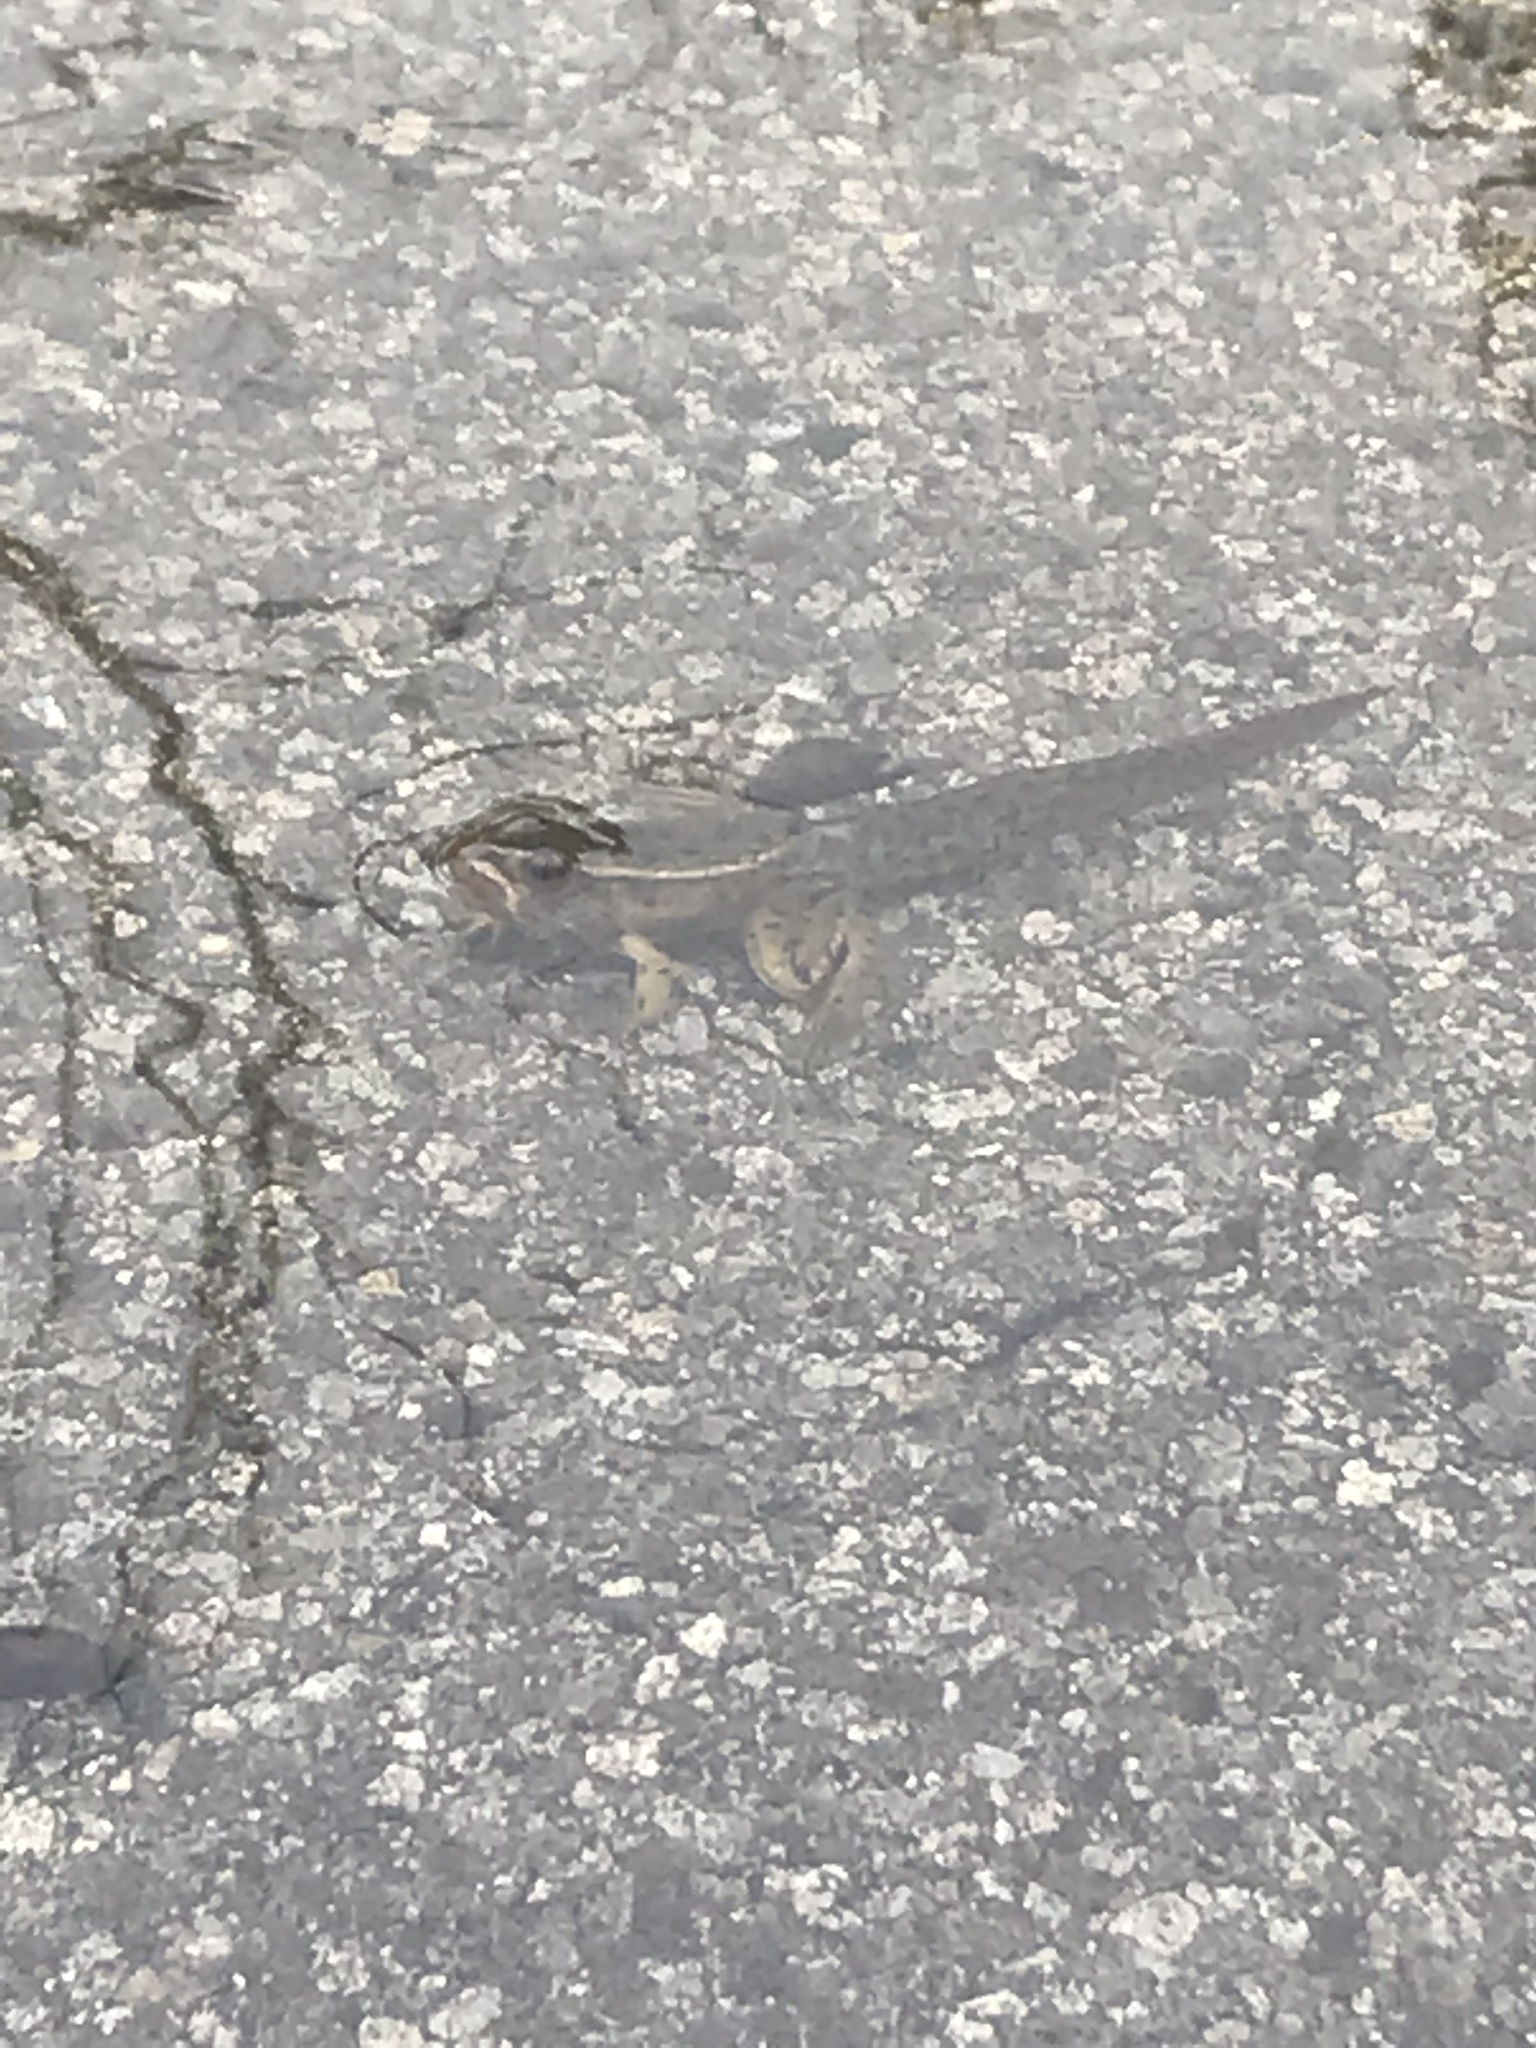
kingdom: Animalia
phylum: Chordata
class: Amphibia
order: Anura
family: Ranidae
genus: Lithobates
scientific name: Lithobates pipiens
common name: Northern leopard frog
